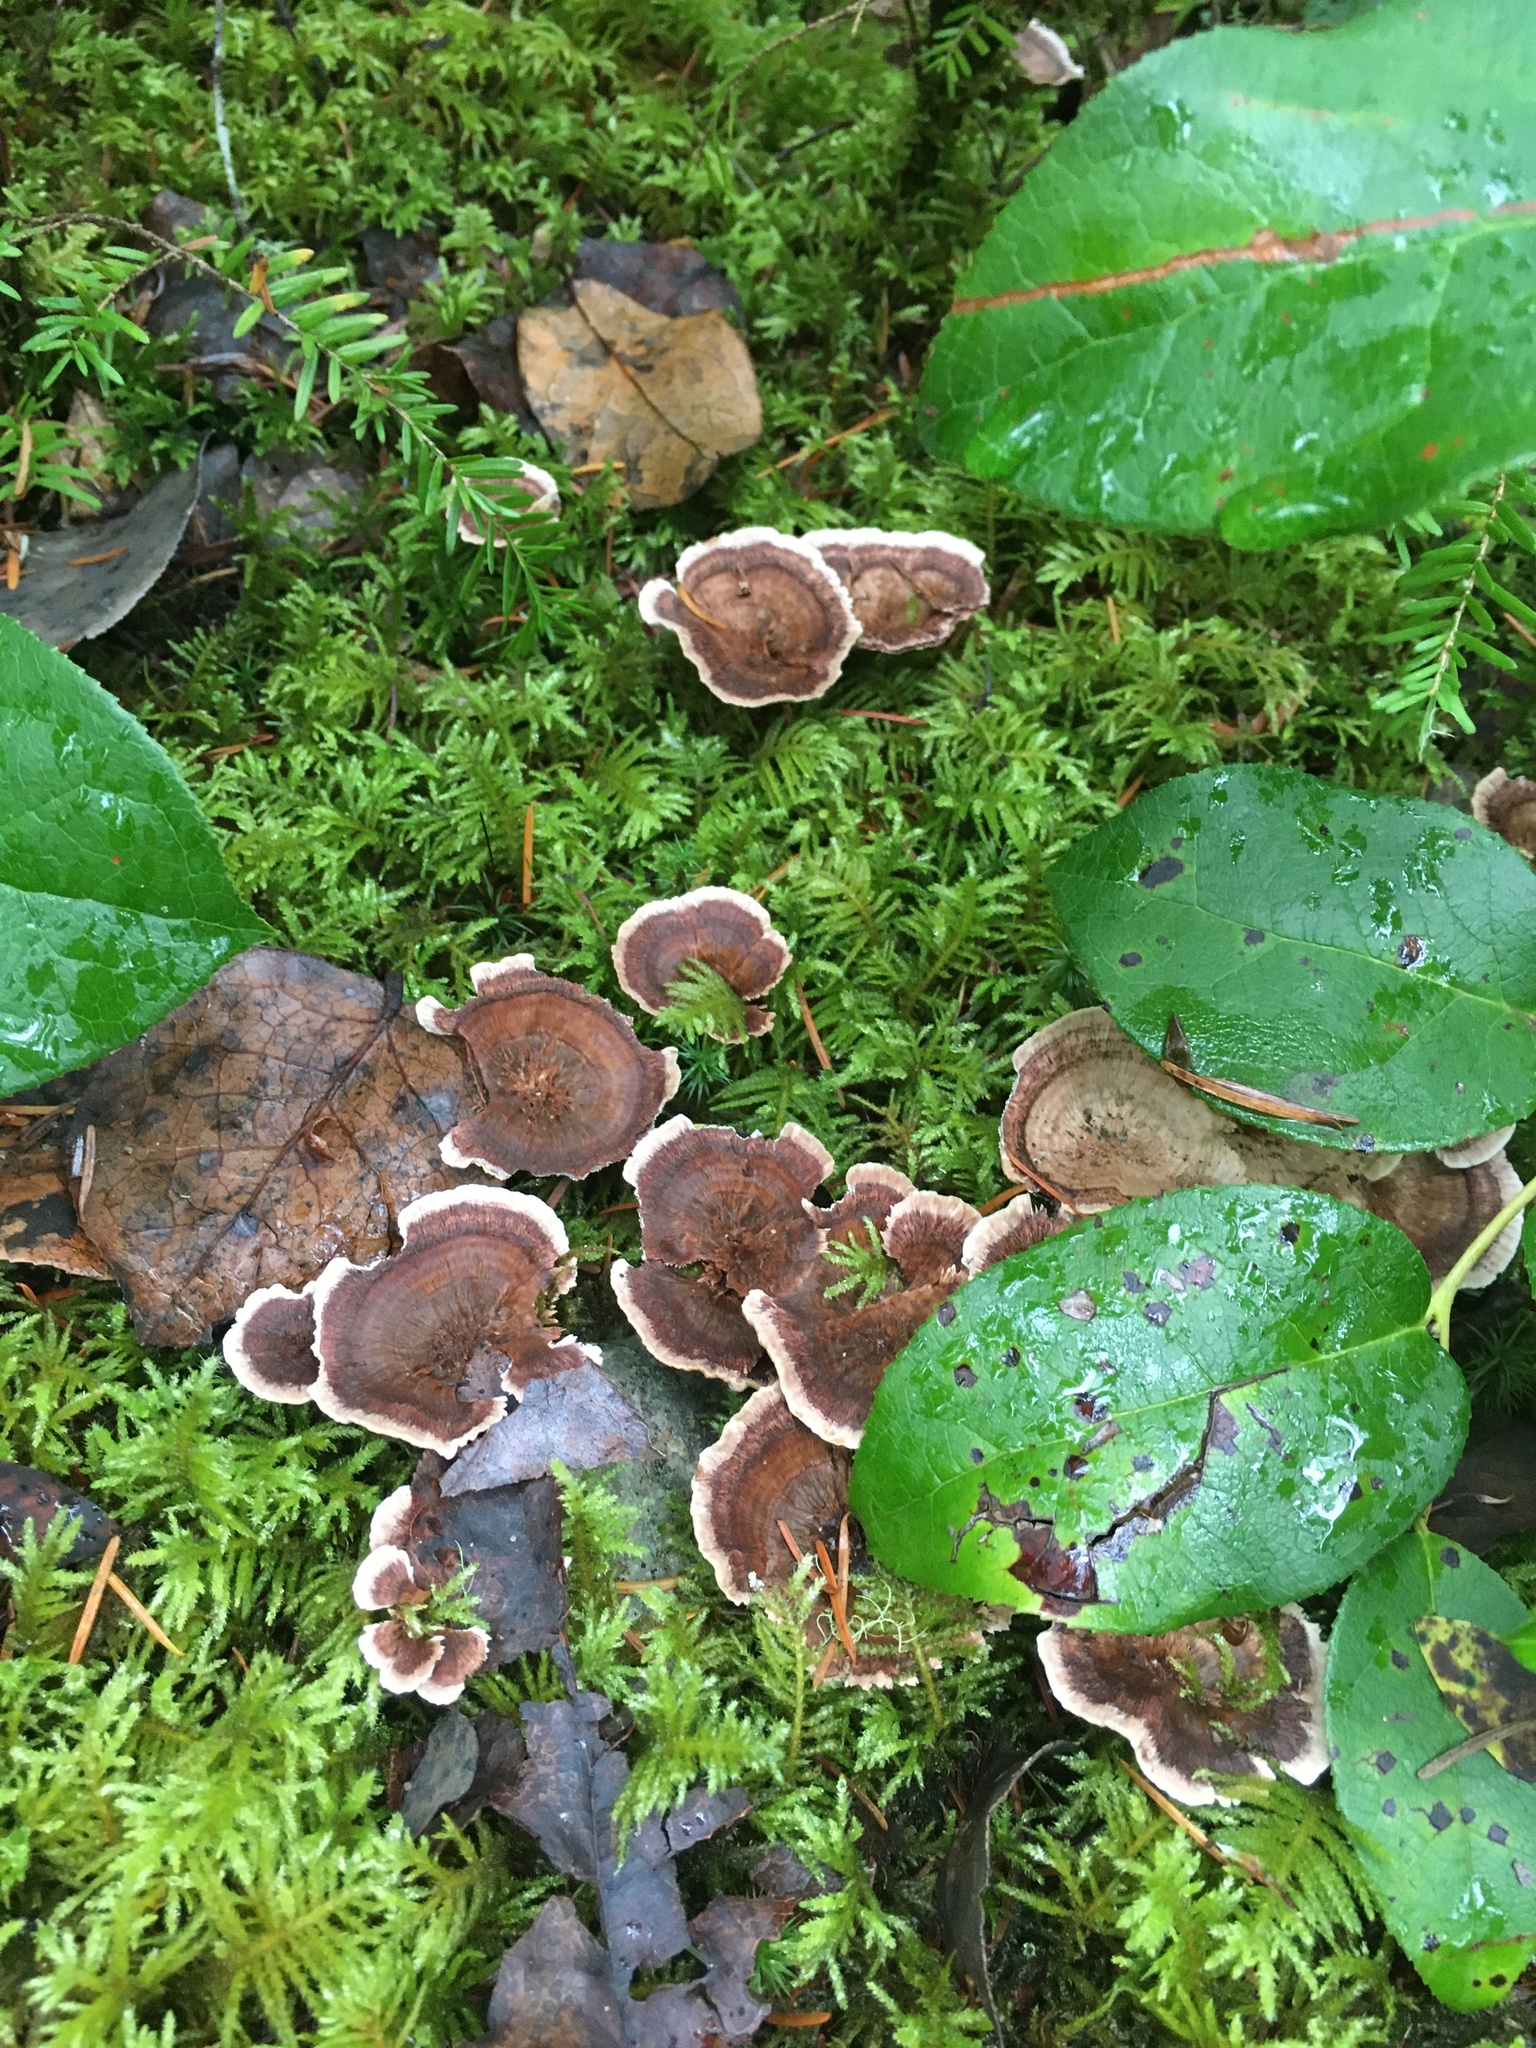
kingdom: Fungi
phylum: Basidiomycota
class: Agaricomycetes
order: Hymenochaetales
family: Hymenochaetaceae
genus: Coltricia
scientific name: Coltricia perennis
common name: Tiger's eye
